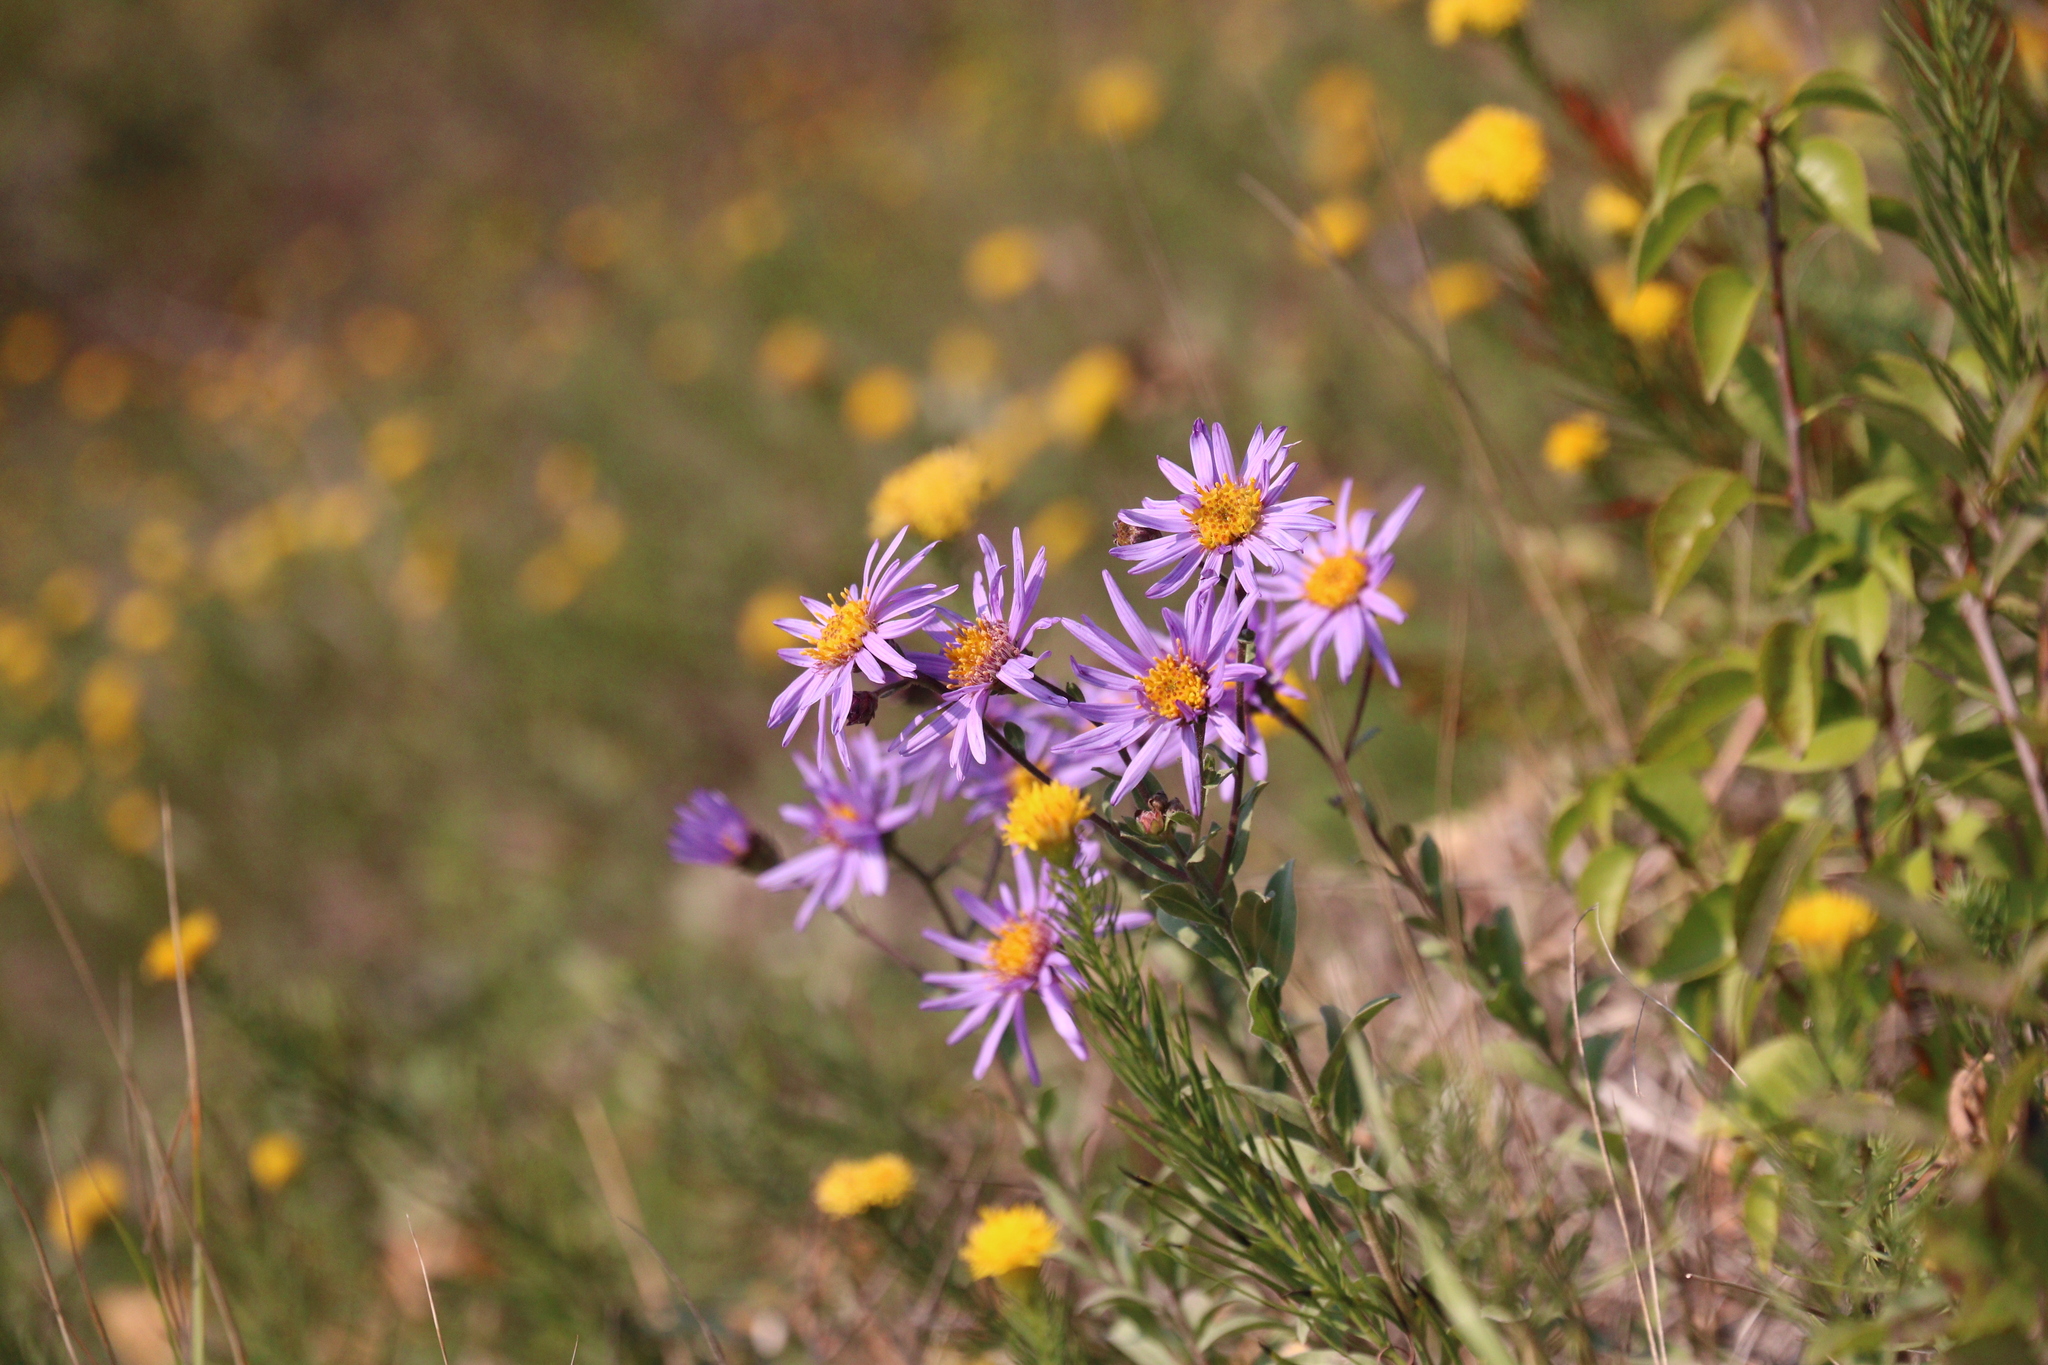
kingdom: Plantae
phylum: Tracheophyta
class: Magnoliopsida
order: Asterales
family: Asteraceae
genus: Aster
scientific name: Aster amellus
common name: European michaelmas daisy
